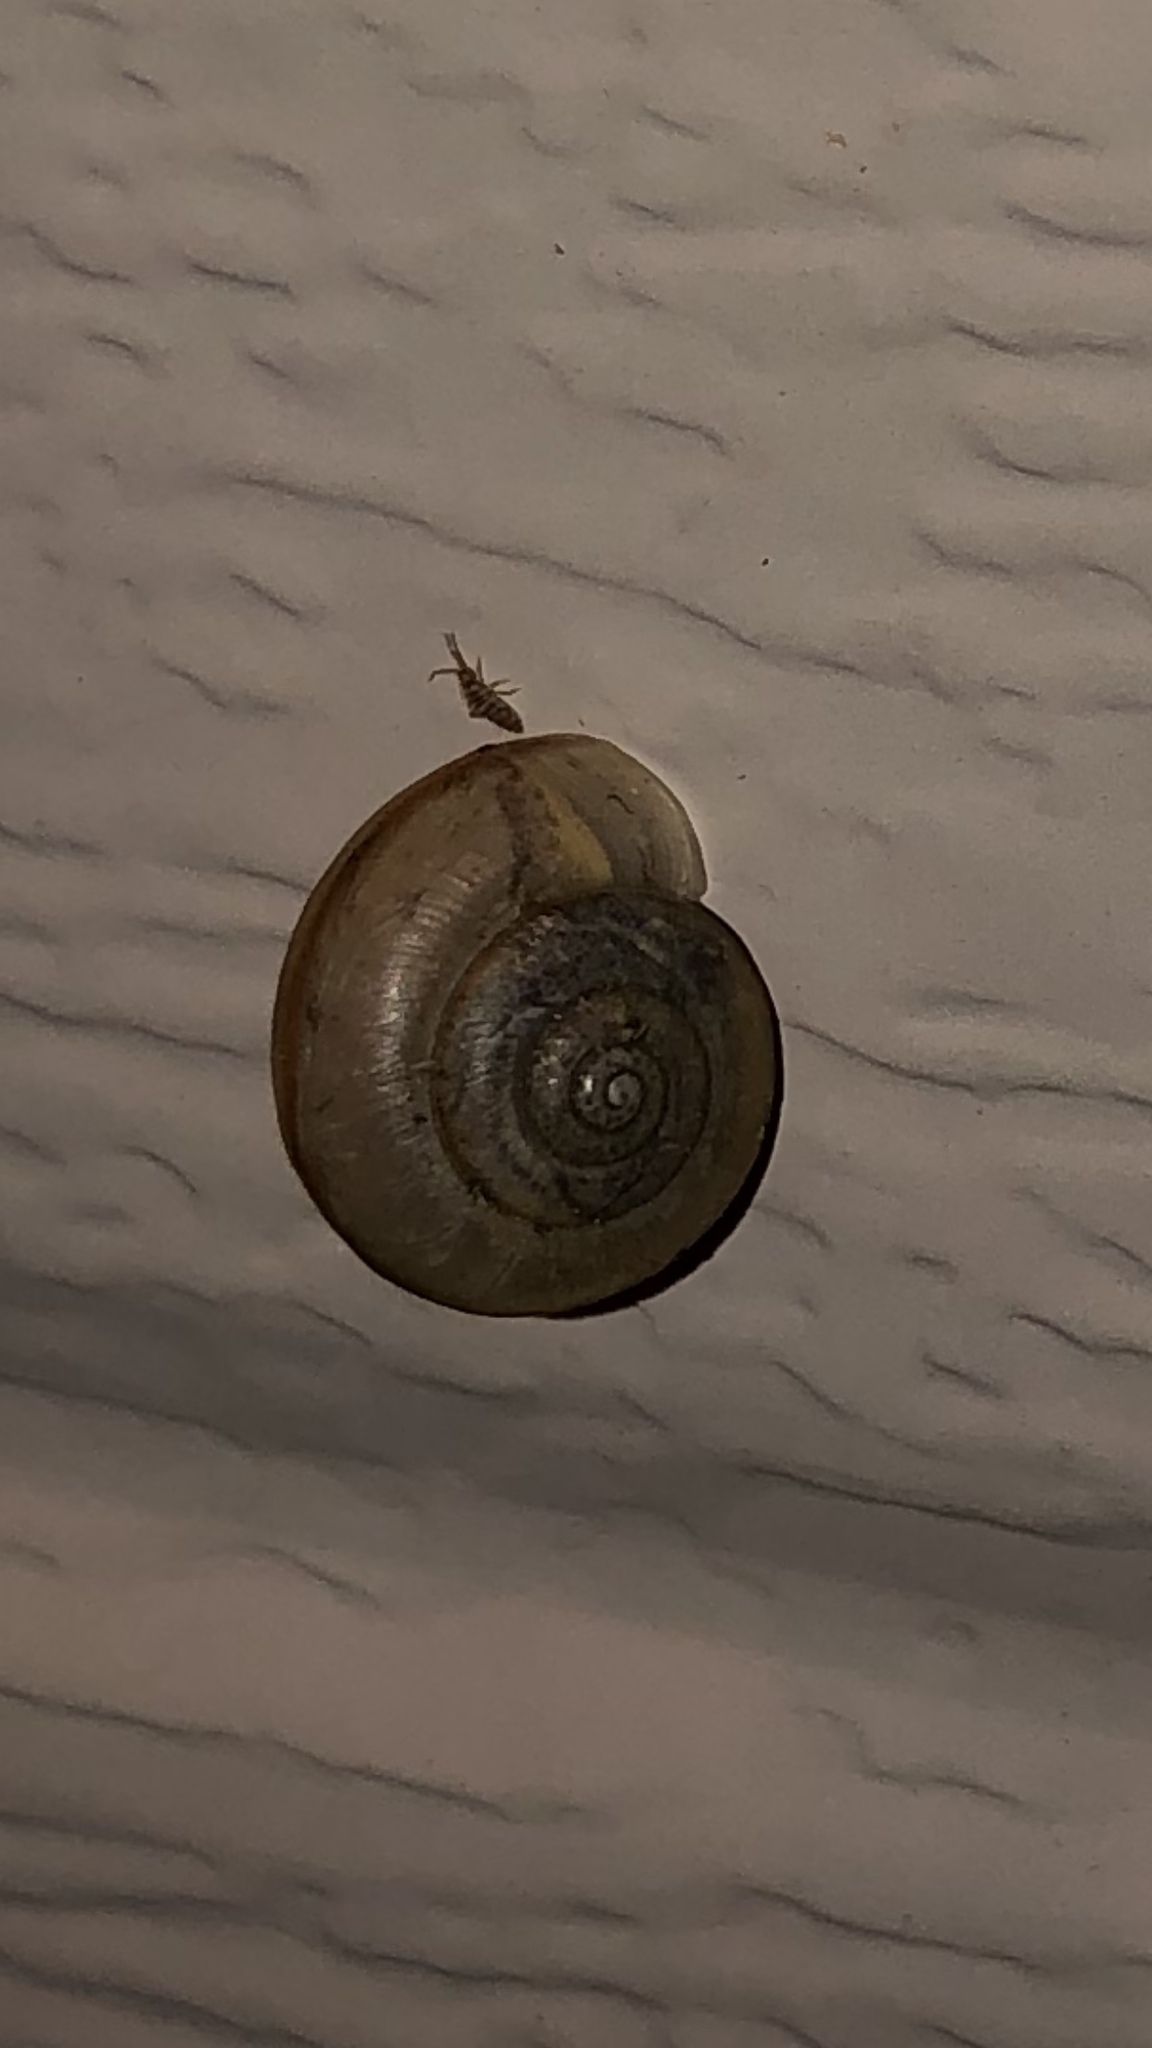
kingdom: Animalia
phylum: Mollusca
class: Gastropoda
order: Stylommatophora
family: Camaenidae
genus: Bradybaena
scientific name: Bradybaena similaris
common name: Asian trampsnail
